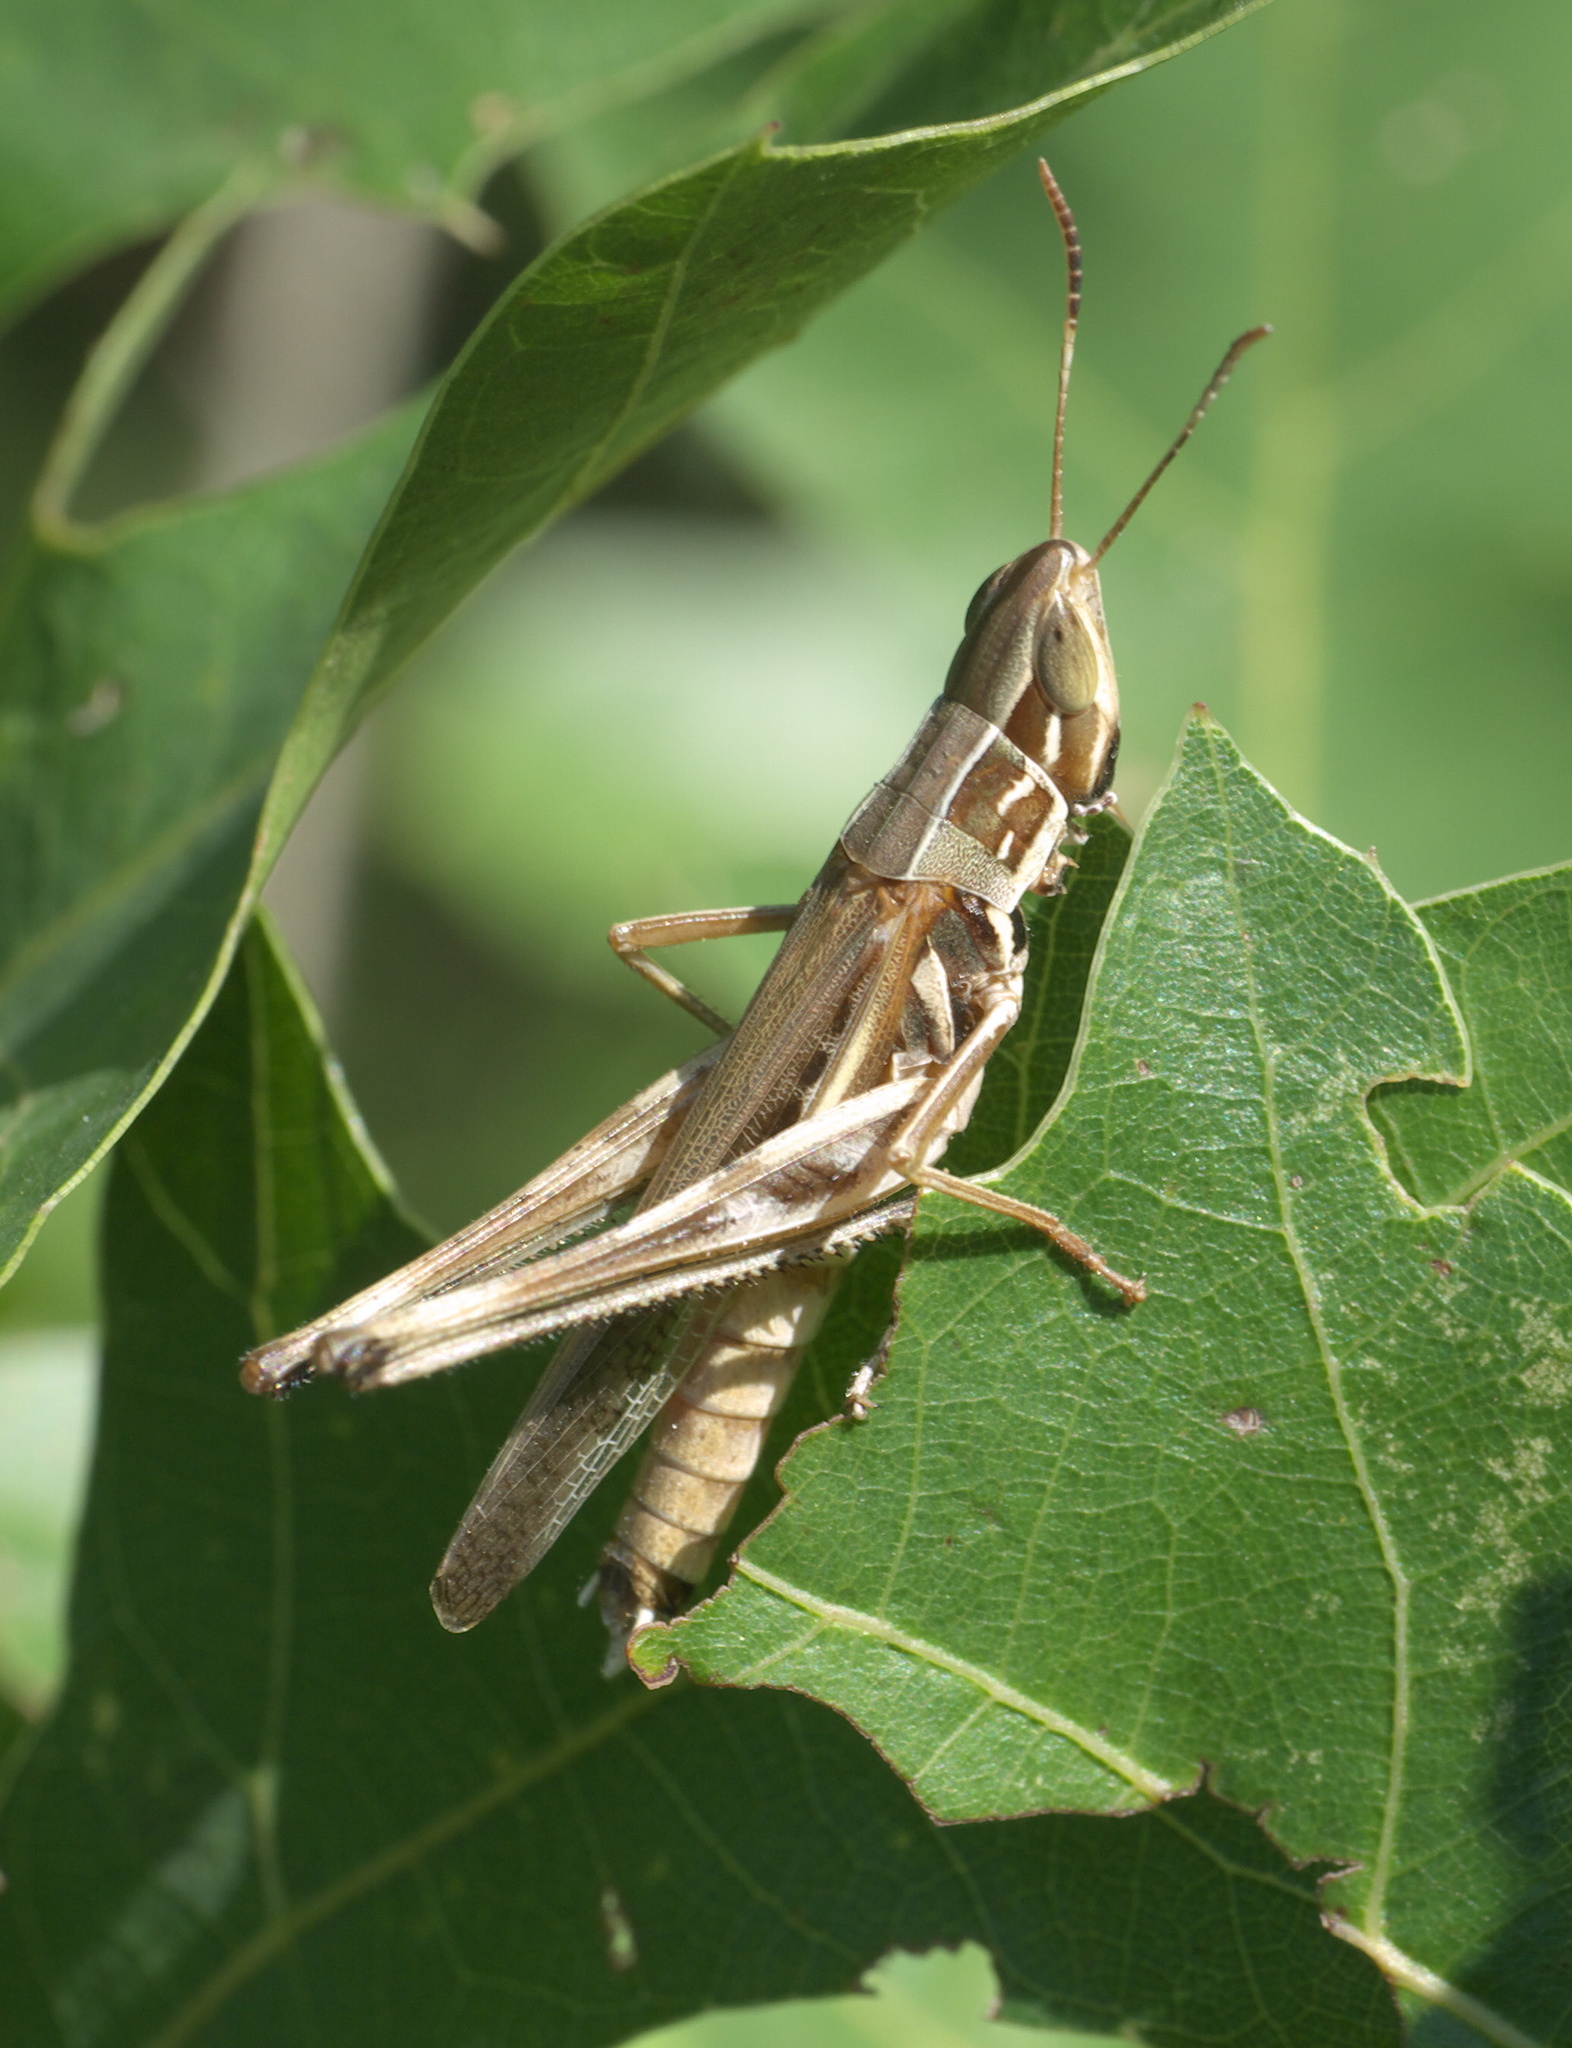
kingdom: Animalia
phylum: Arthropoda
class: Insecta
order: Orthoptera
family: Acrididae
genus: Syrbula
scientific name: Syrbula admirabilis
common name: Handsome grasshopper
